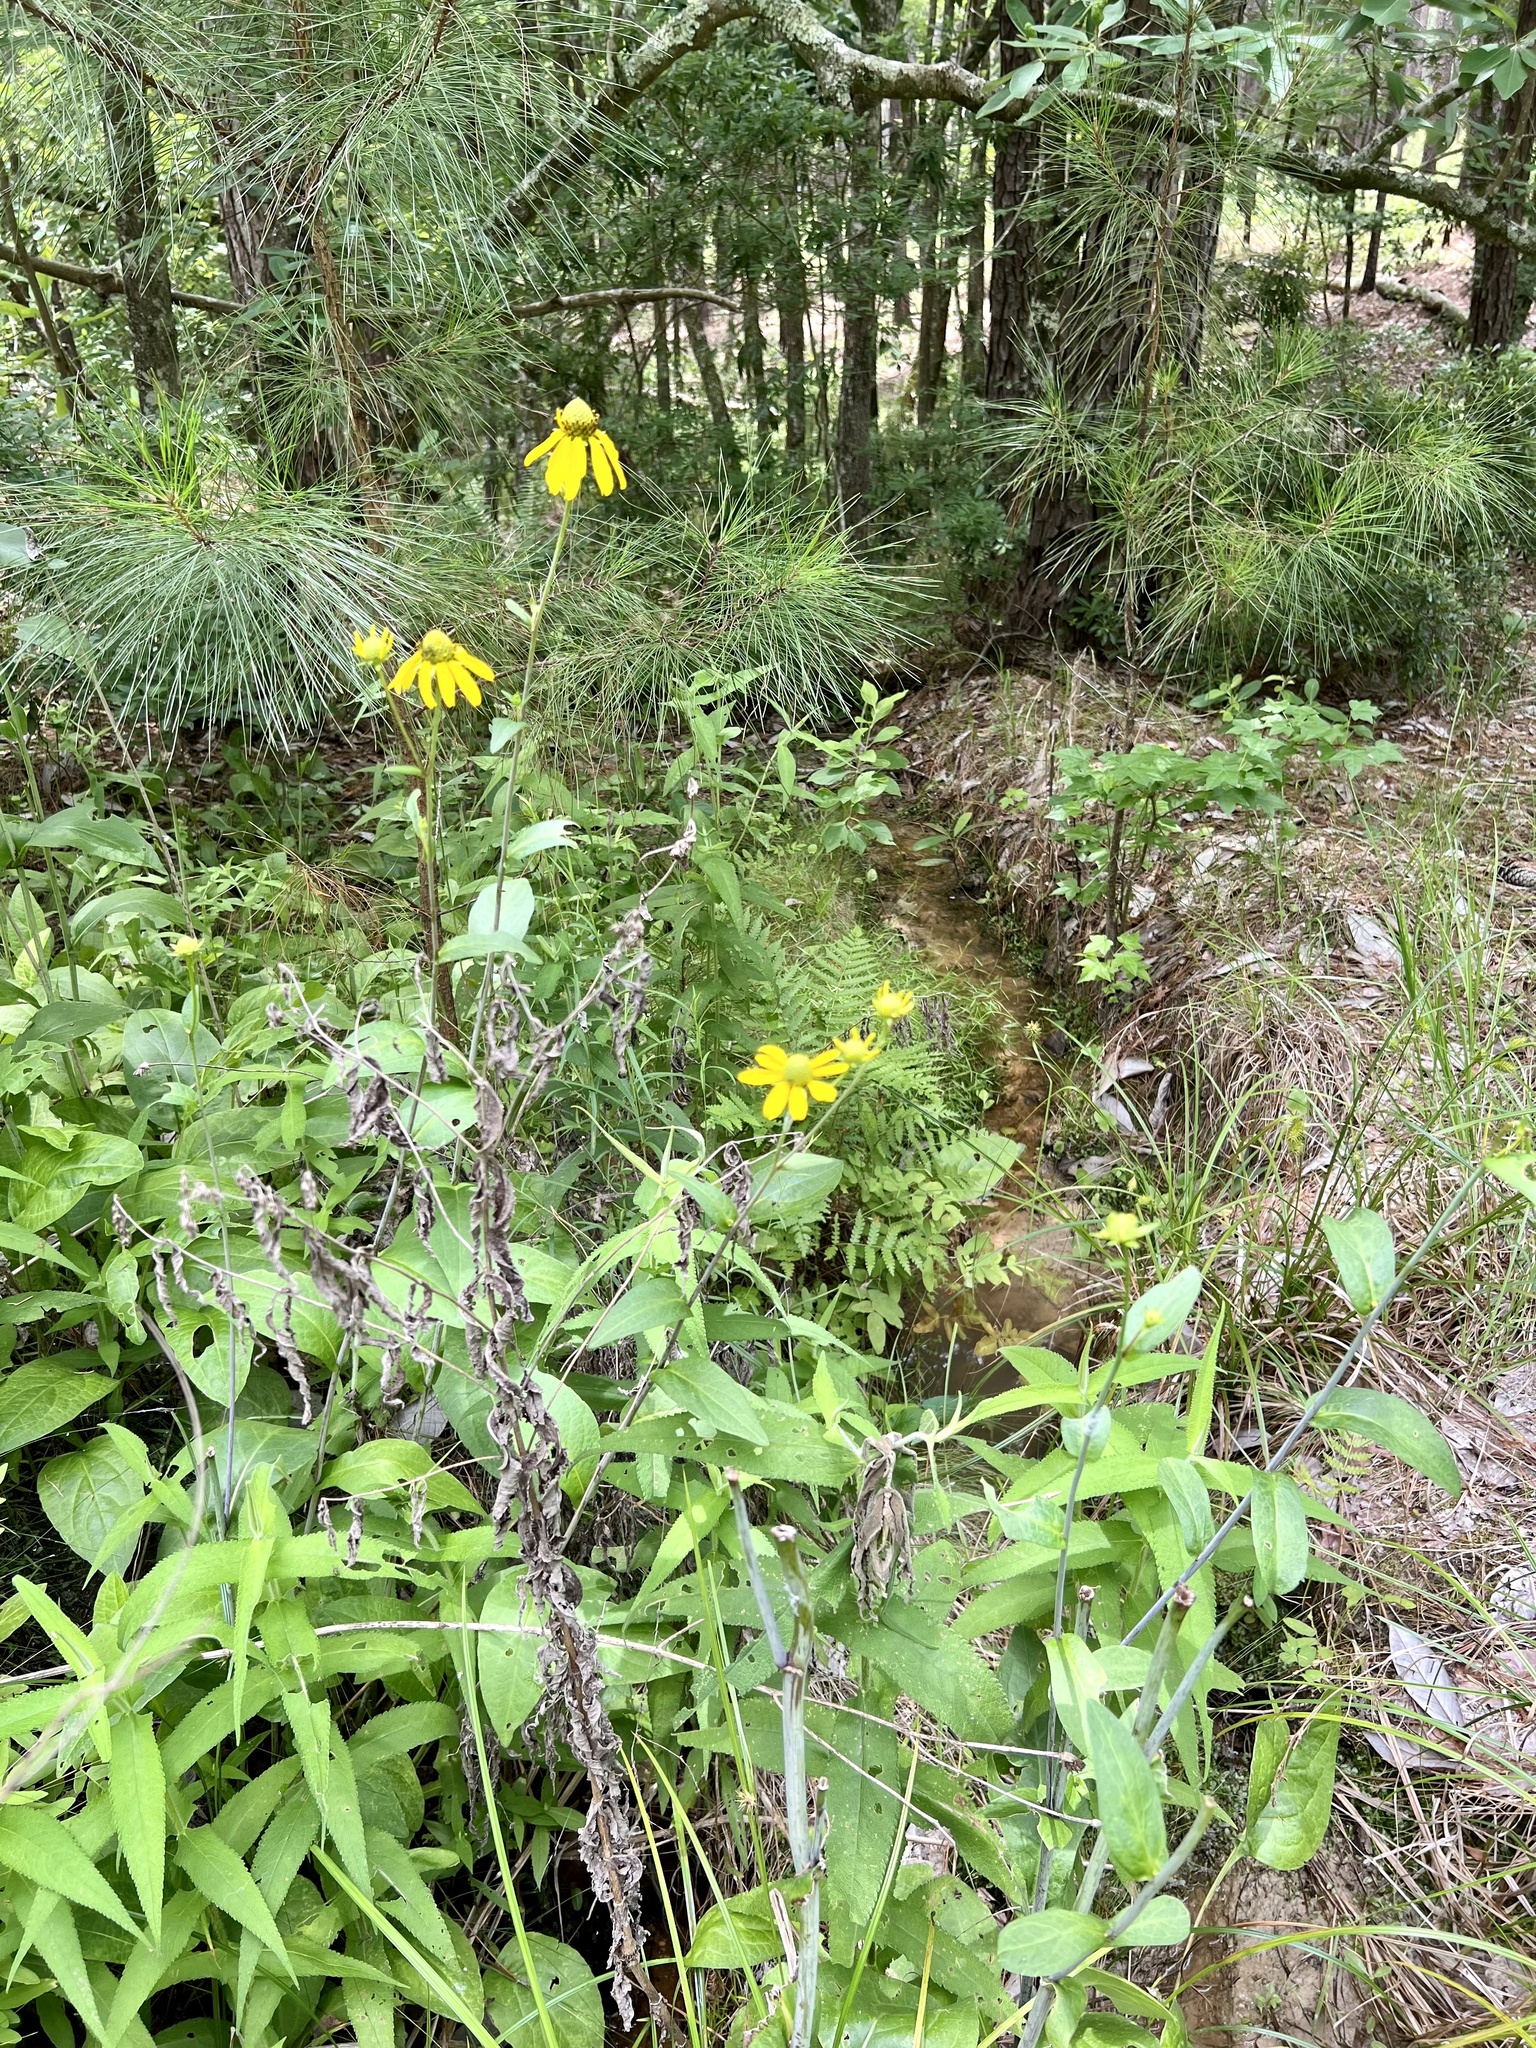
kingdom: Plantae
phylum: Tracheophyta
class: Magnoliopsida
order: Asterales
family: Asteraceae
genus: Rudbeckia
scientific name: Rudbeckia scabrifolia
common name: Rough-leaf coneflower
